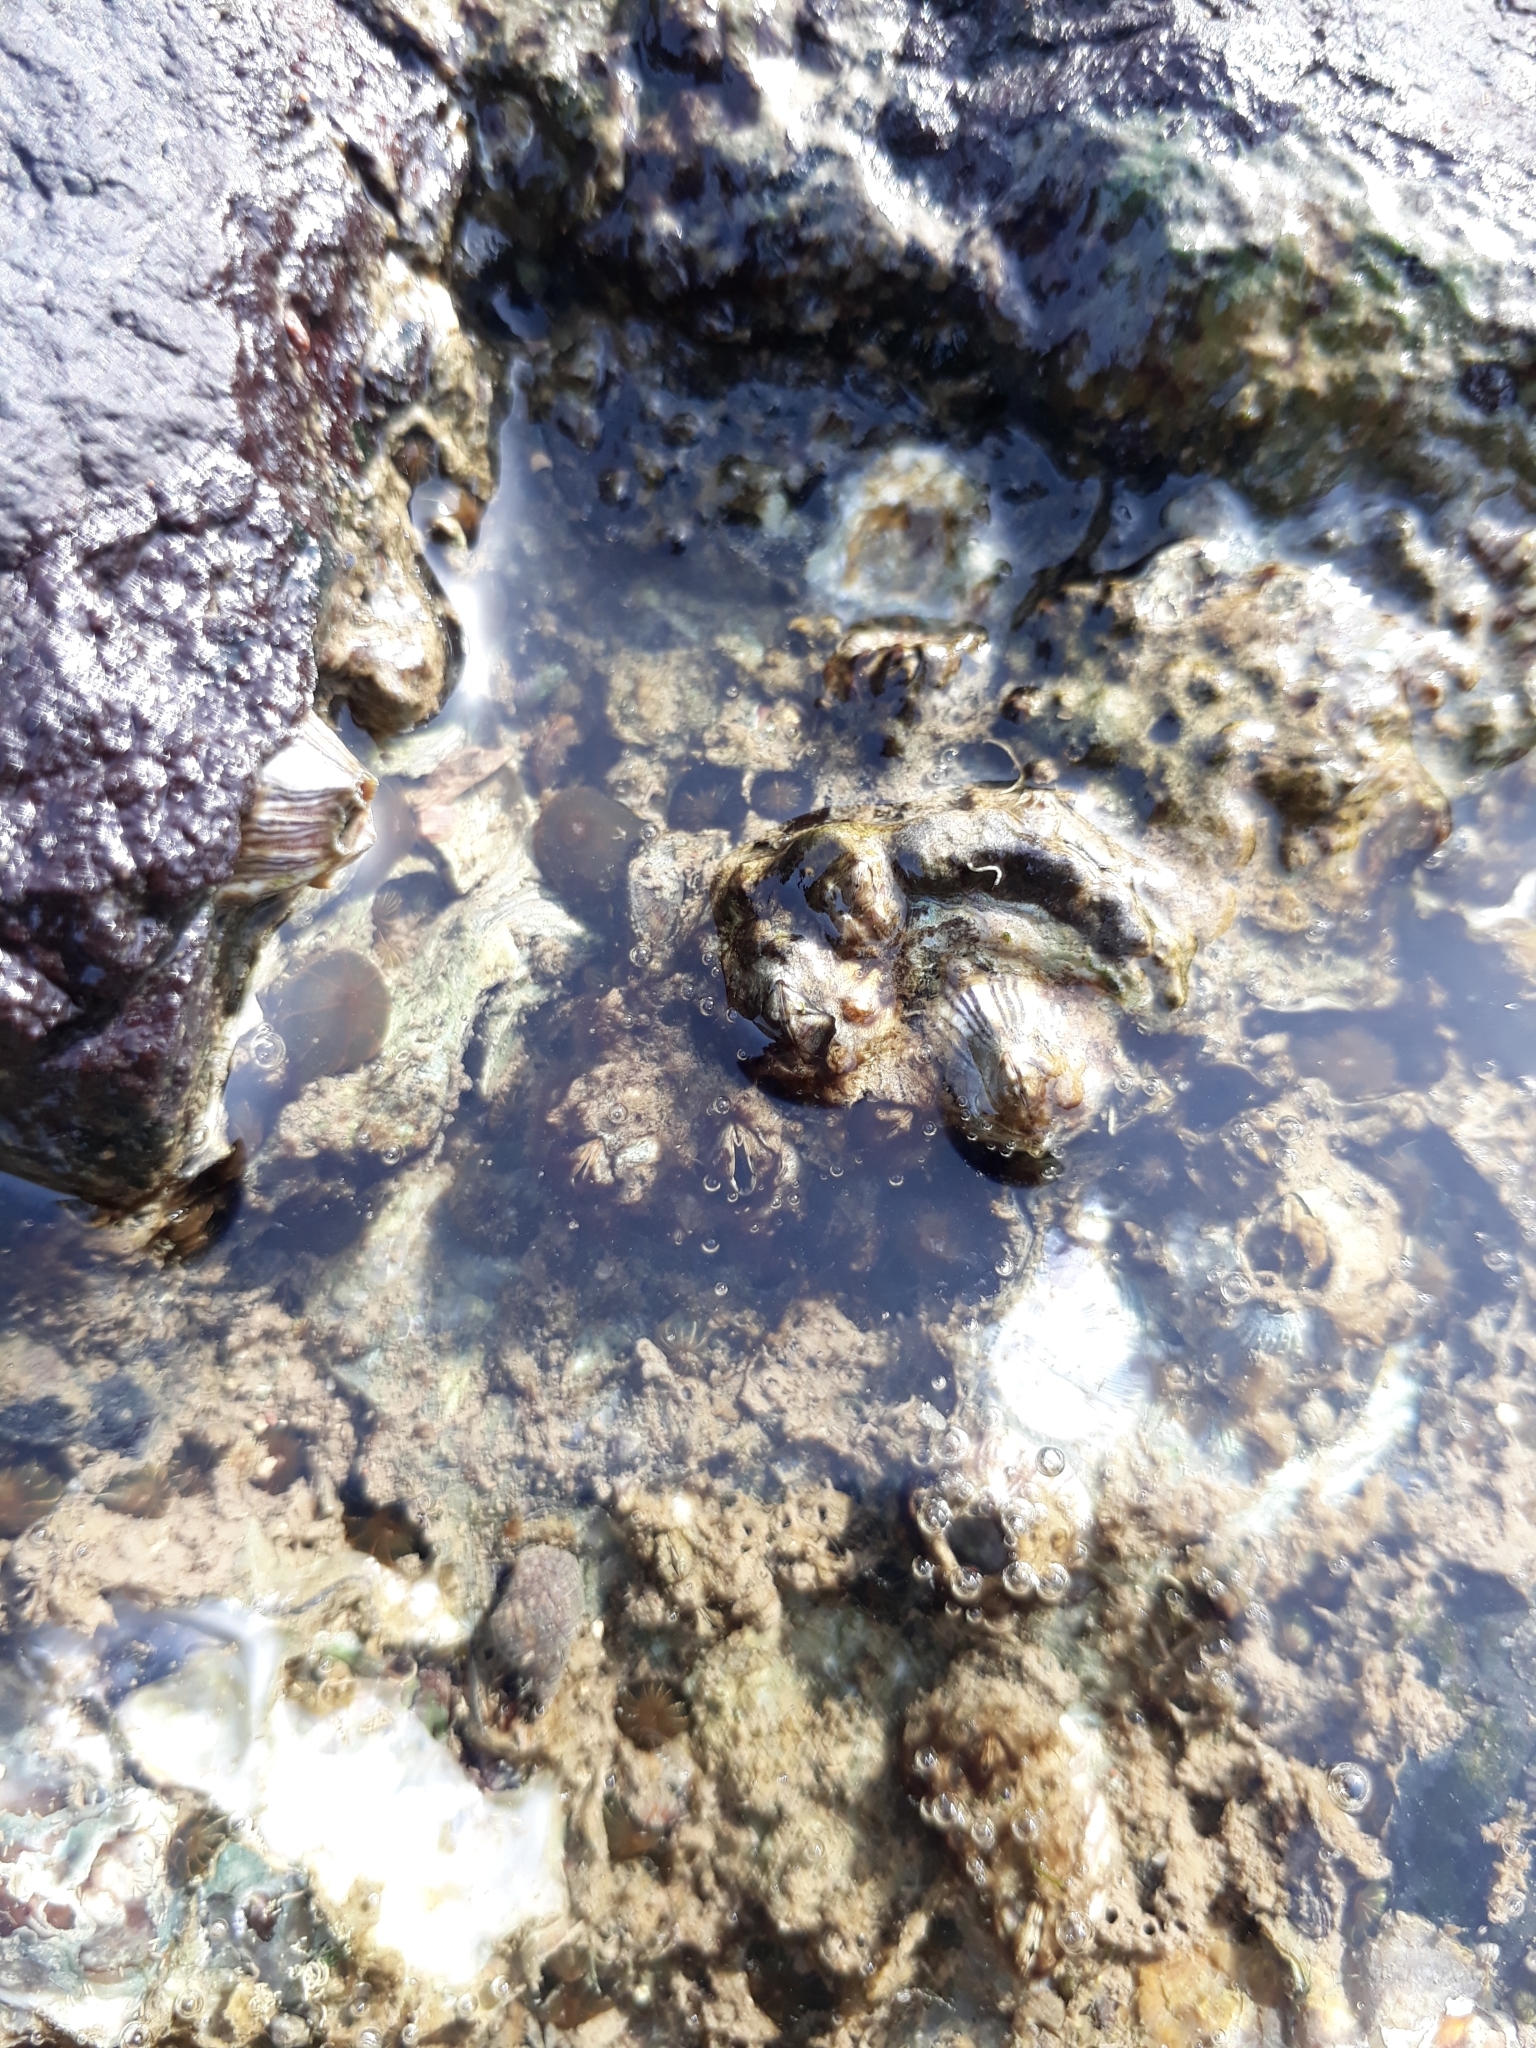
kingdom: Animalia
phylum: Arthropoda
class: Maxillopoda
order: Sessilia
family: Balanidae
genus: Amphibalanus
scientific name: Amphibalanus amphitrite
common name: Striped acorn barnacle
